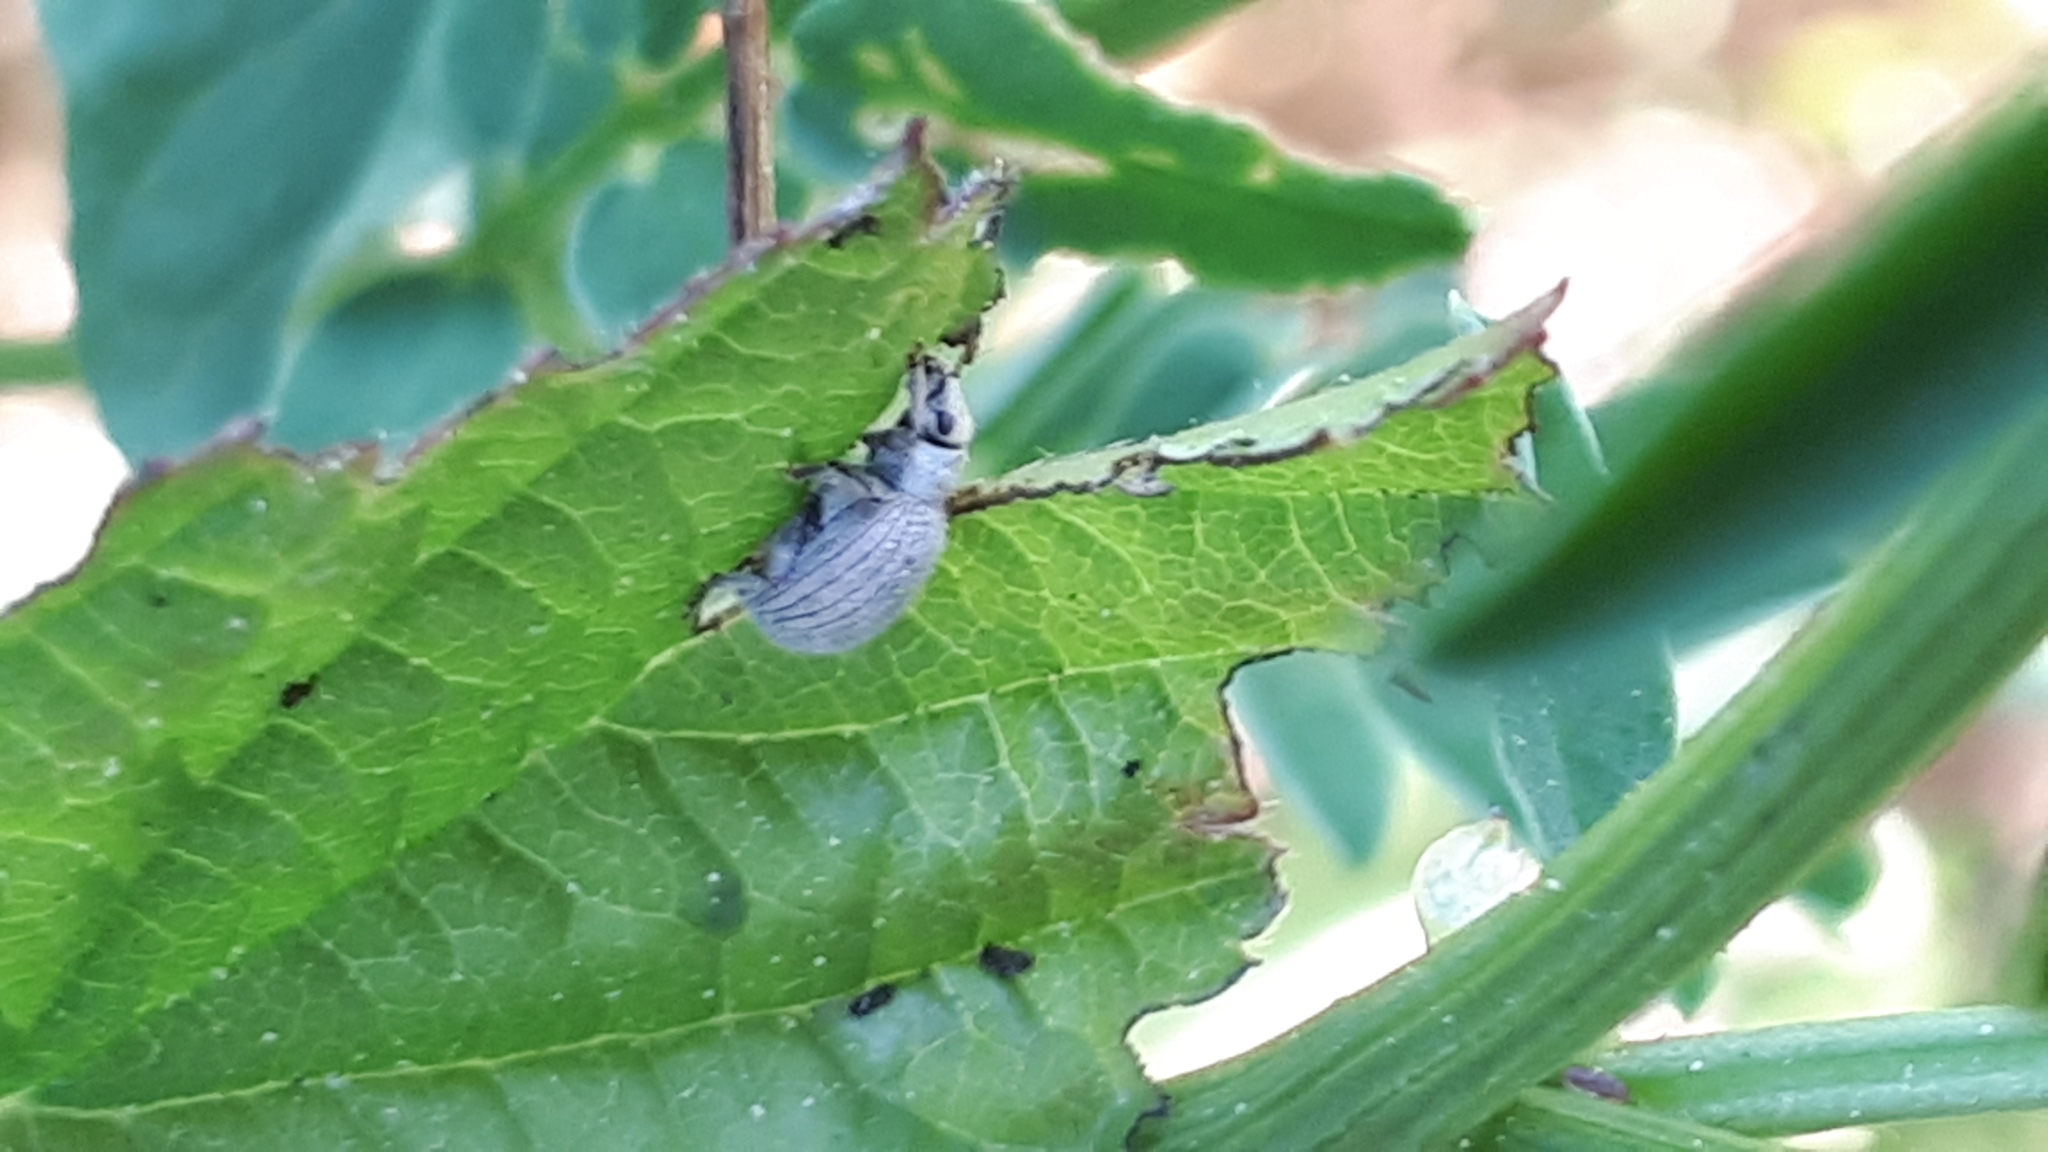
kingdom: Animalia
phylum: Arthropoda
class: Insecta
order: Coleoptera
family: Curculionidae
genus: Foucartia
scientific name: Foucartia squamulata
